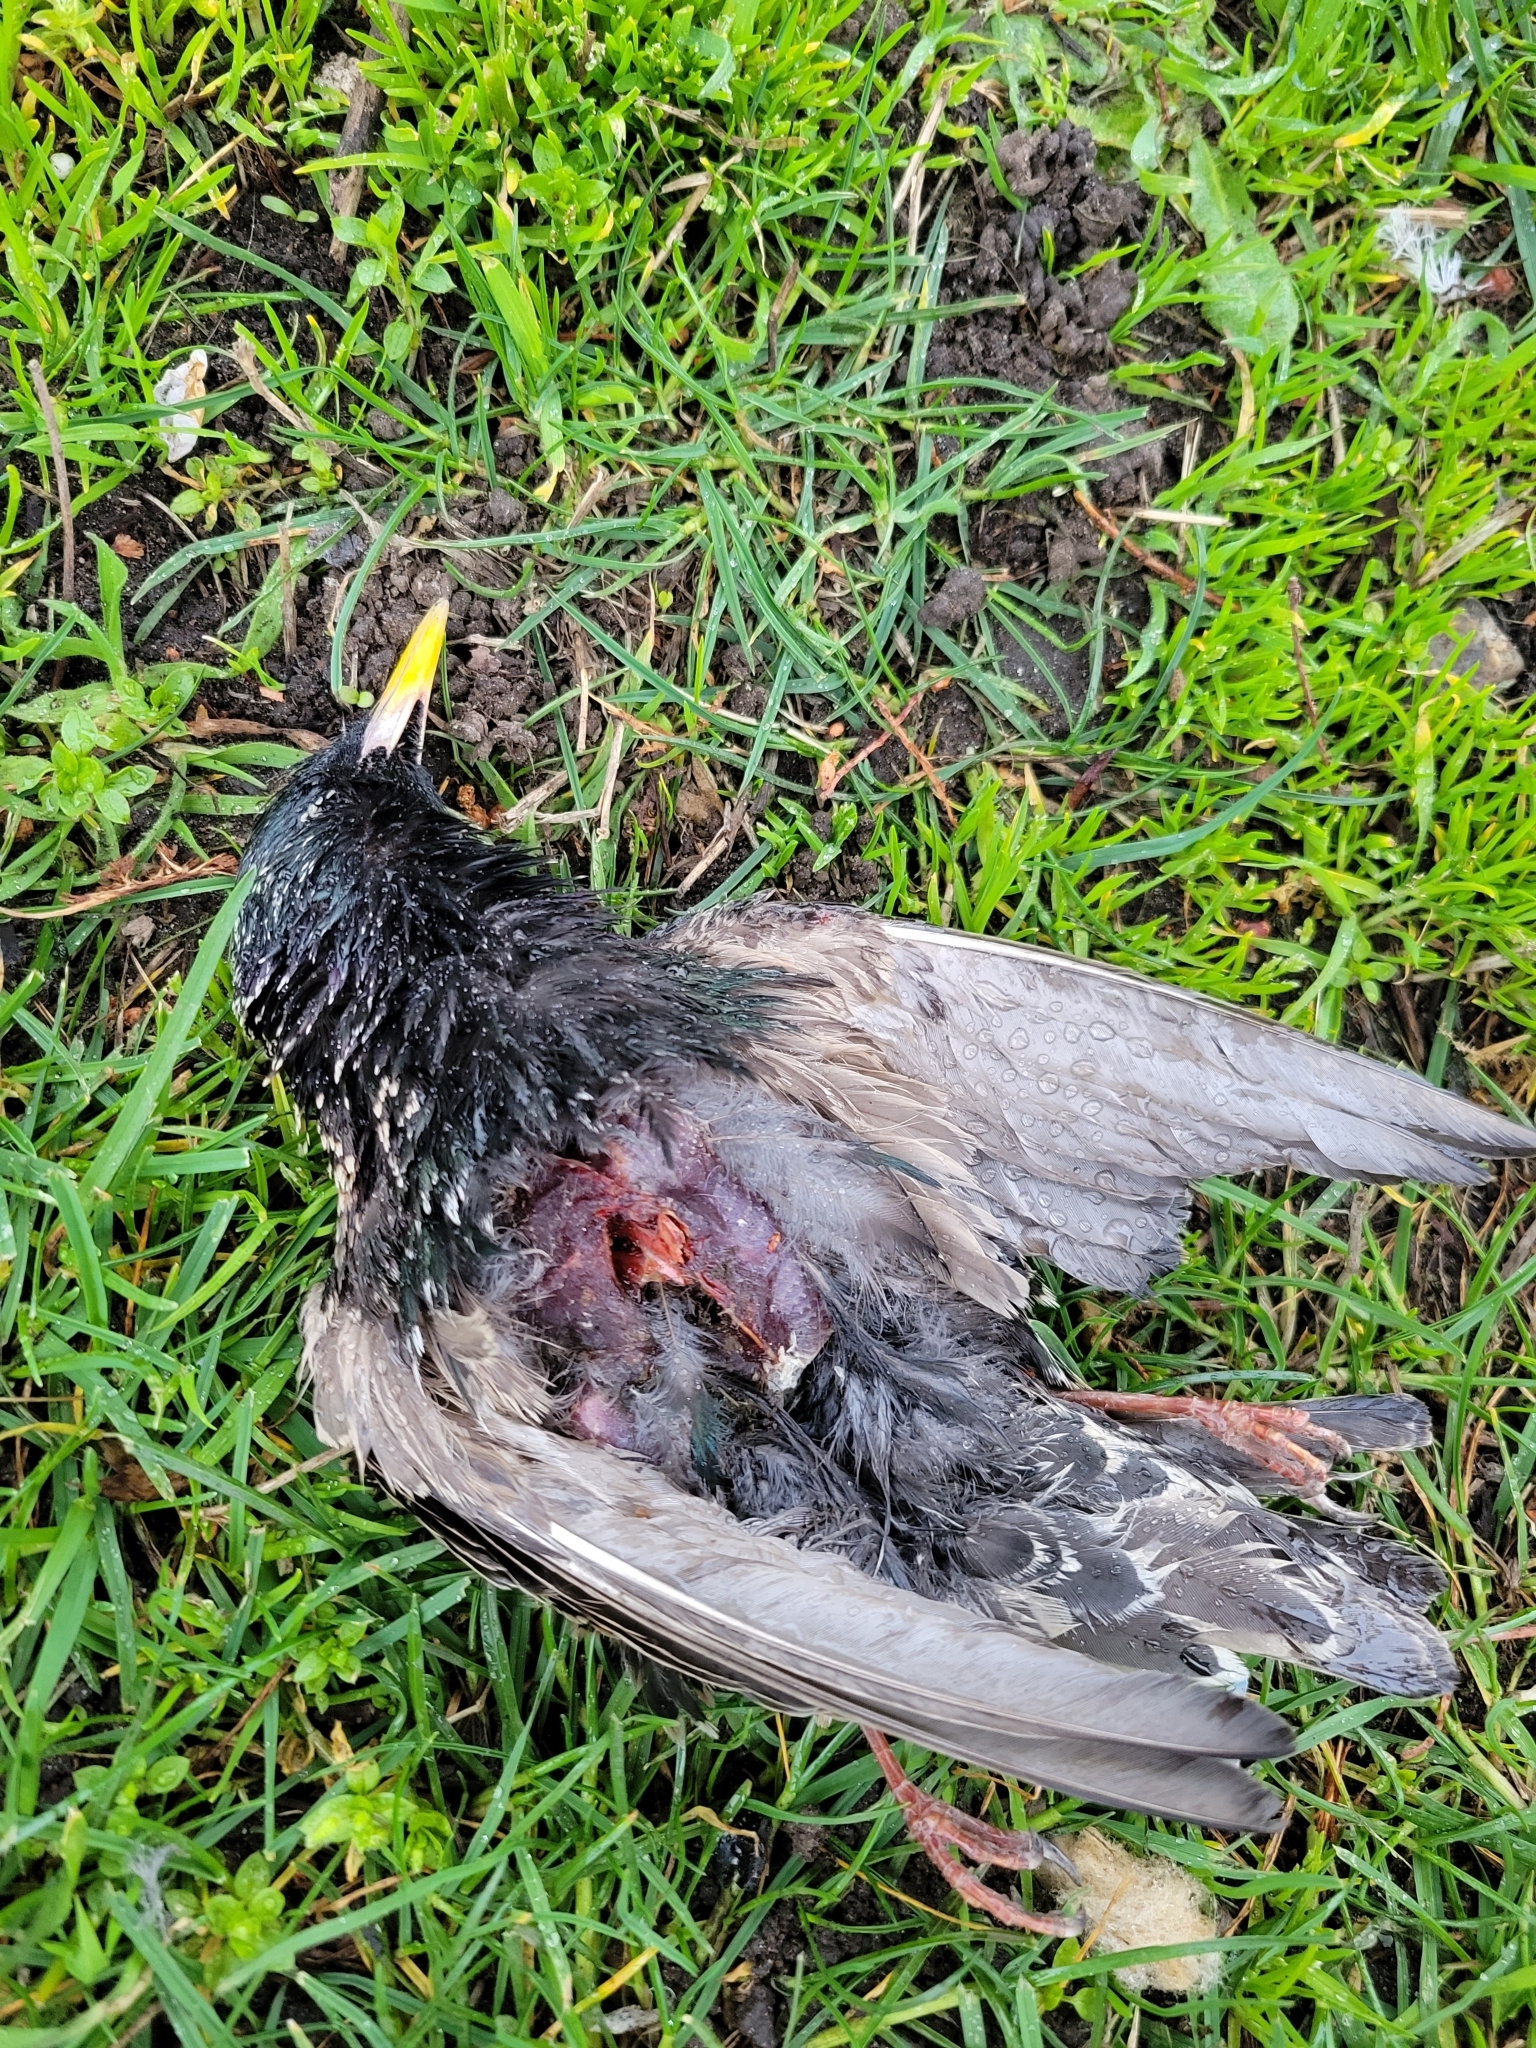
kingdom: Animalia
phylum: Chordata
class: Aves
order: Passeriformes
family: Sturnidae
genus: Sturnus
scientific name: Sturnus vulgaris
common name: Common starling
